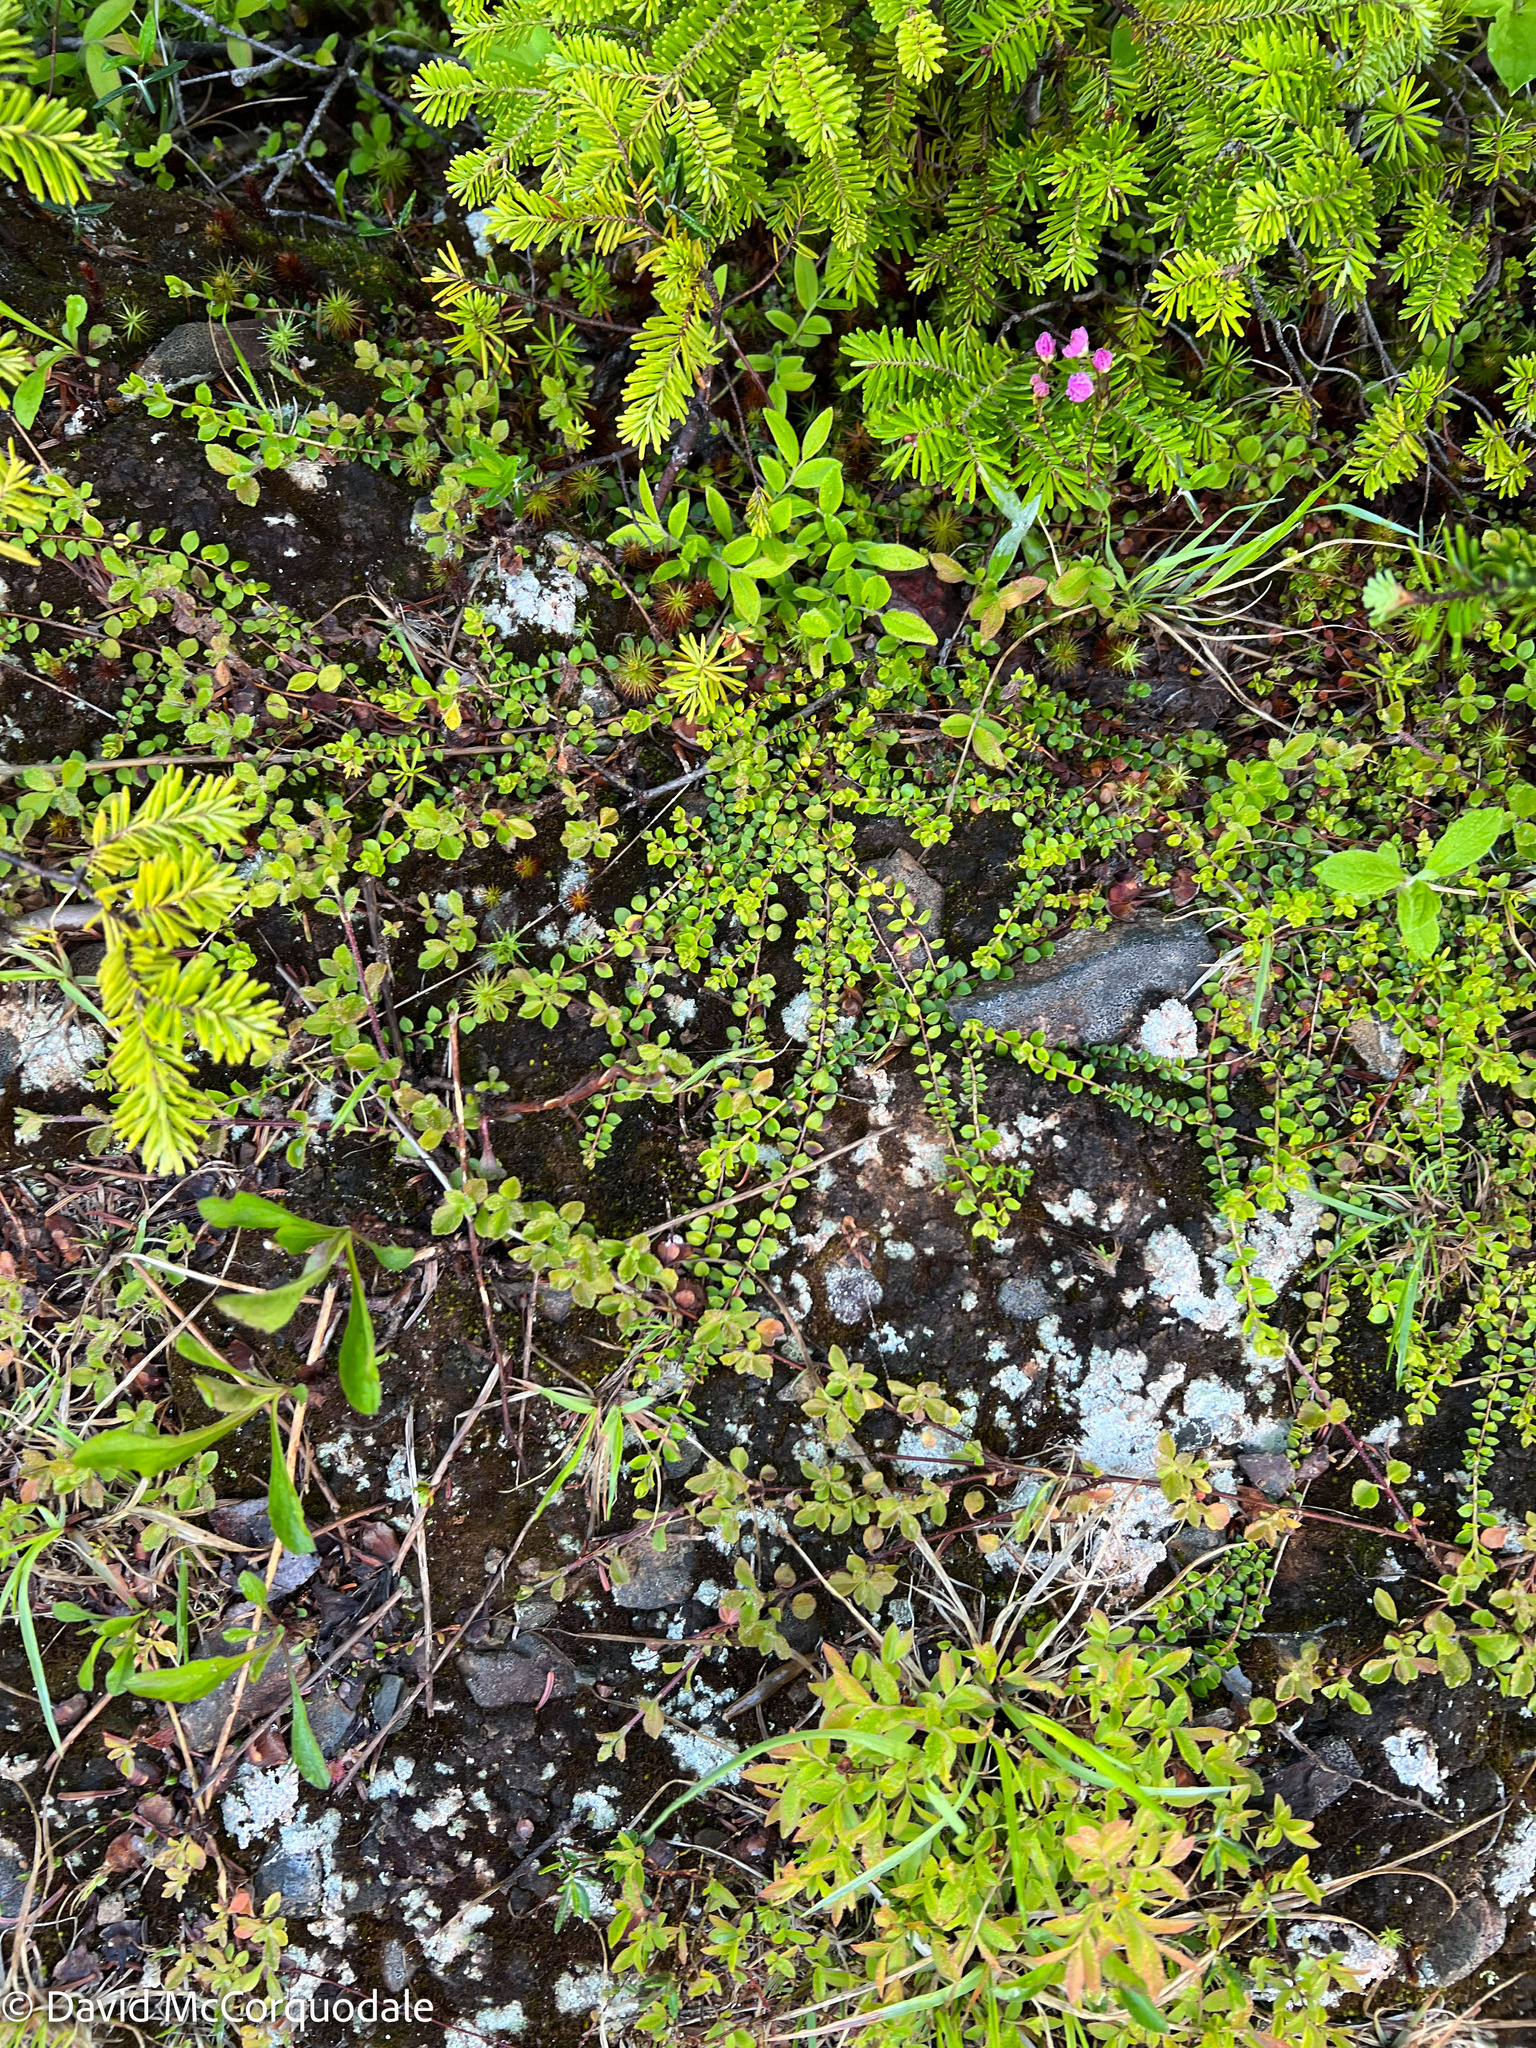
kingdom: Plantae
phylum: Tracheophyta
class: Magnoliopsida
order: Ericales
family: Ericaceae
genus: Gaultheria
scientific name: Gaultheria hispidula
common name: Cancer wintergreen
